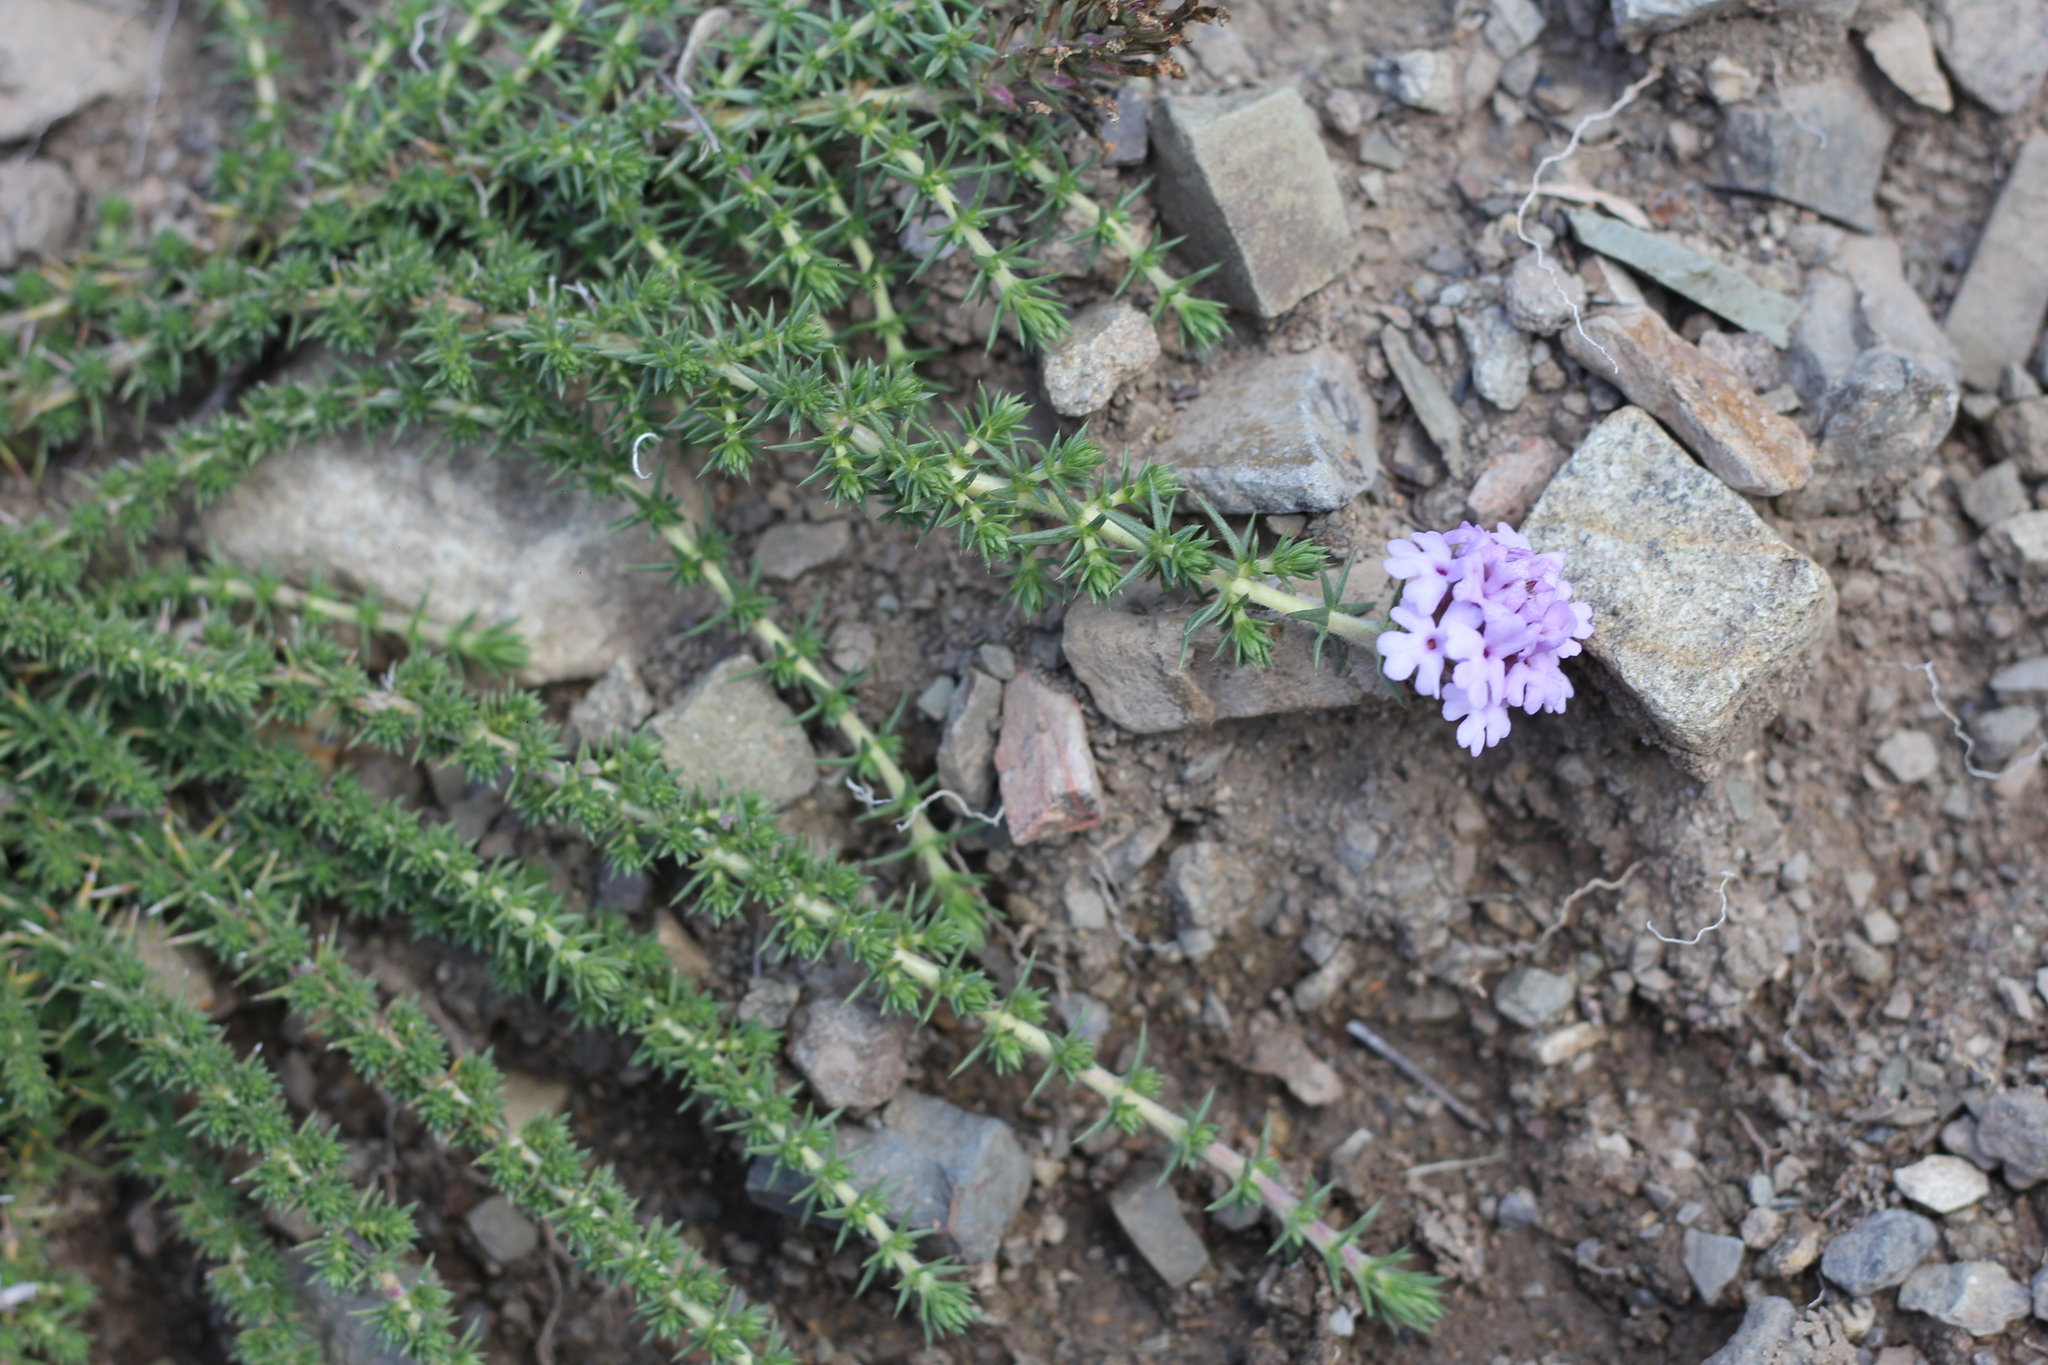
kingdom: Plantae
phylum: Tracheophyta
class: Magnoliopsida
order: Lamiales
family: Verbenaceae
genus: Junellia
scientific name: Junellia juniperina
